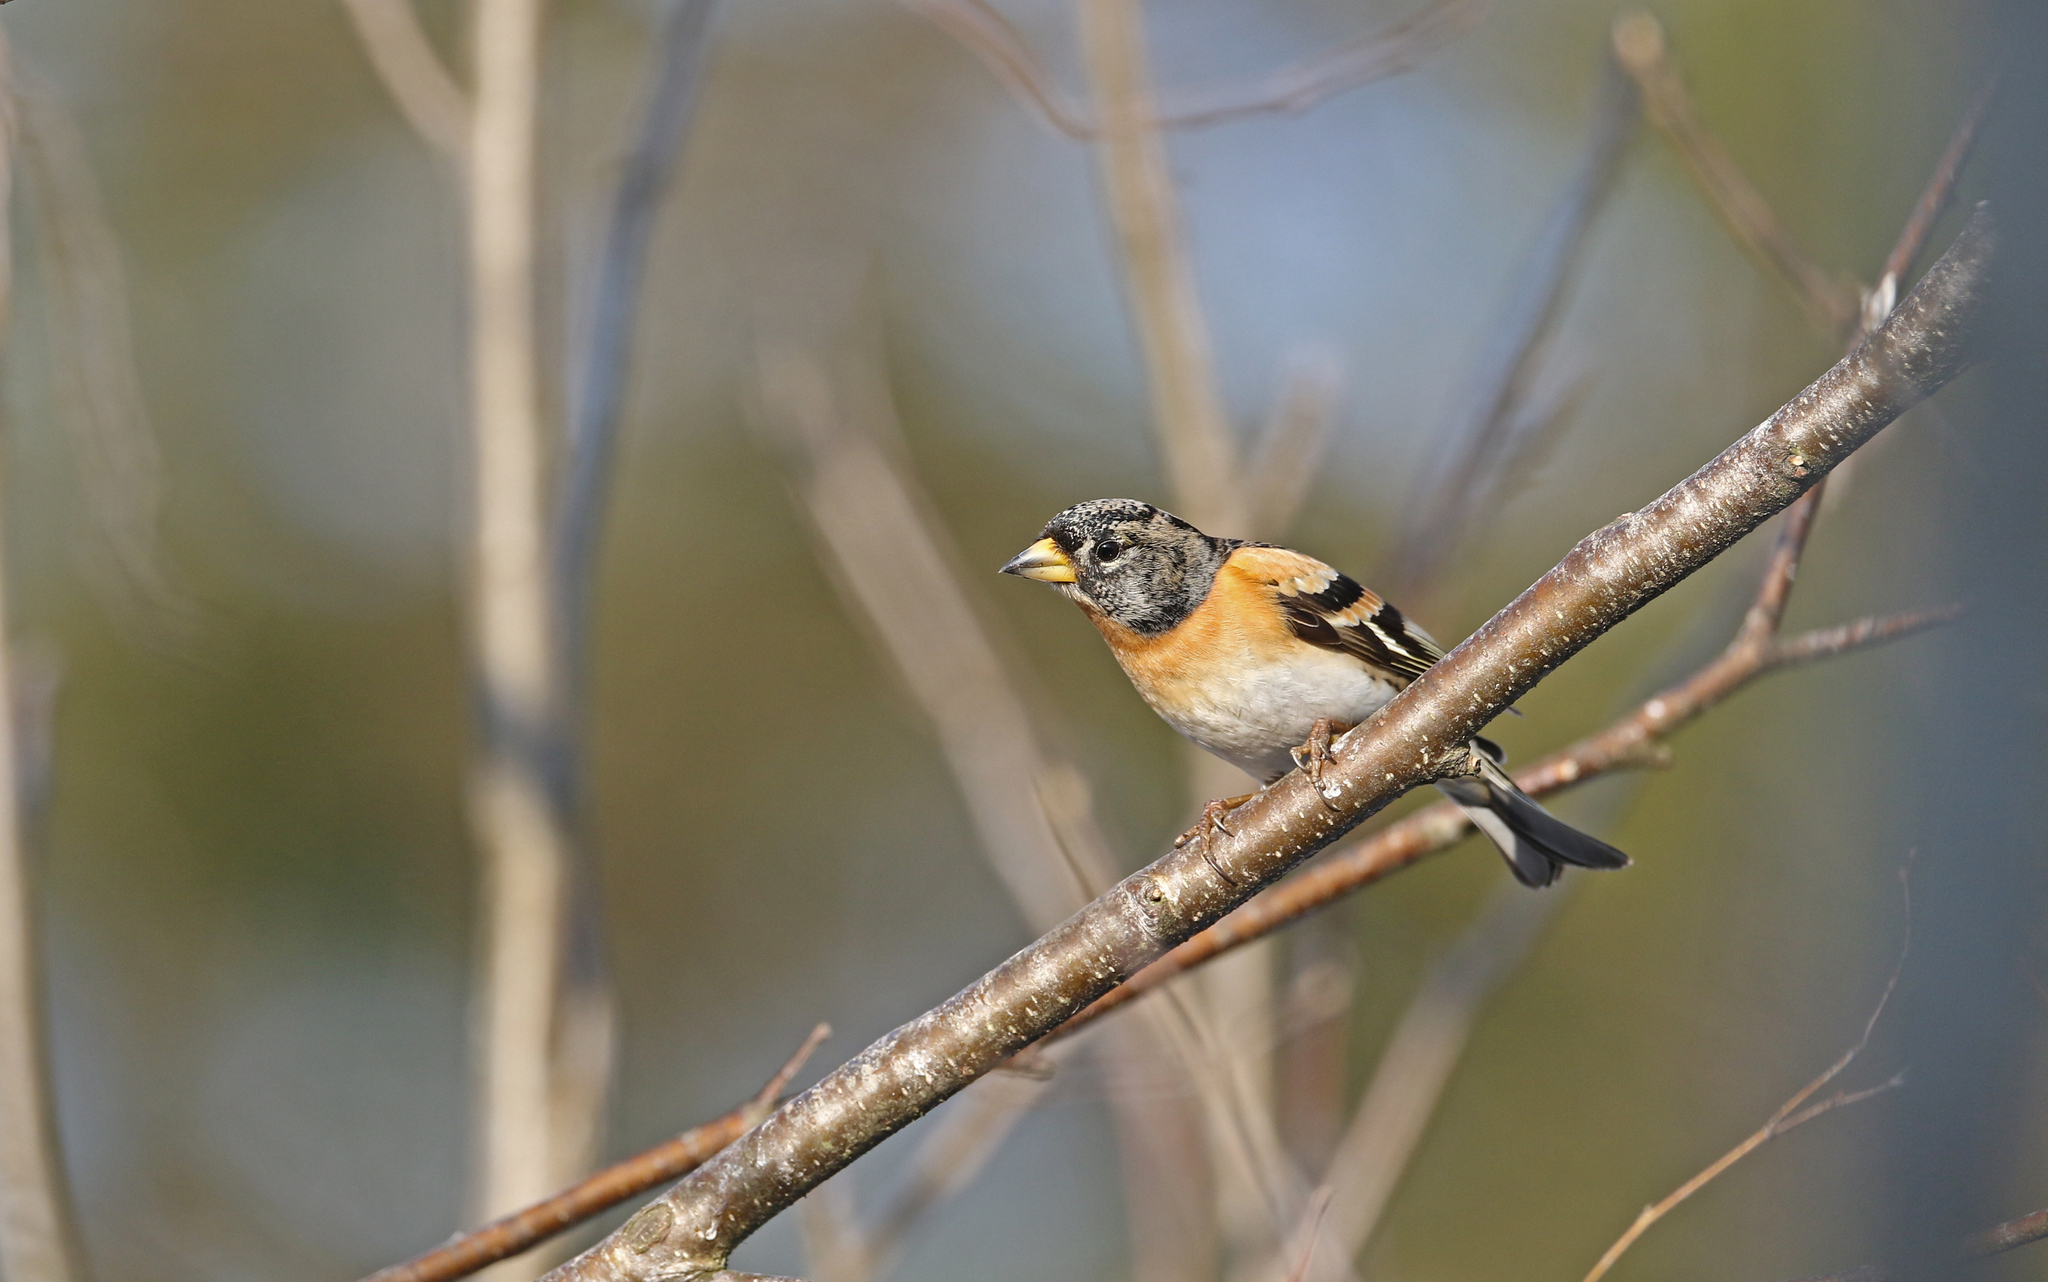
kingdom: Animalia
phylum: Chordata
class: Aves
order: Passeriformes
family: Fringillidae
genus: Fringilla
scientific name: Fringilla montifringilla
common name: Brambling
